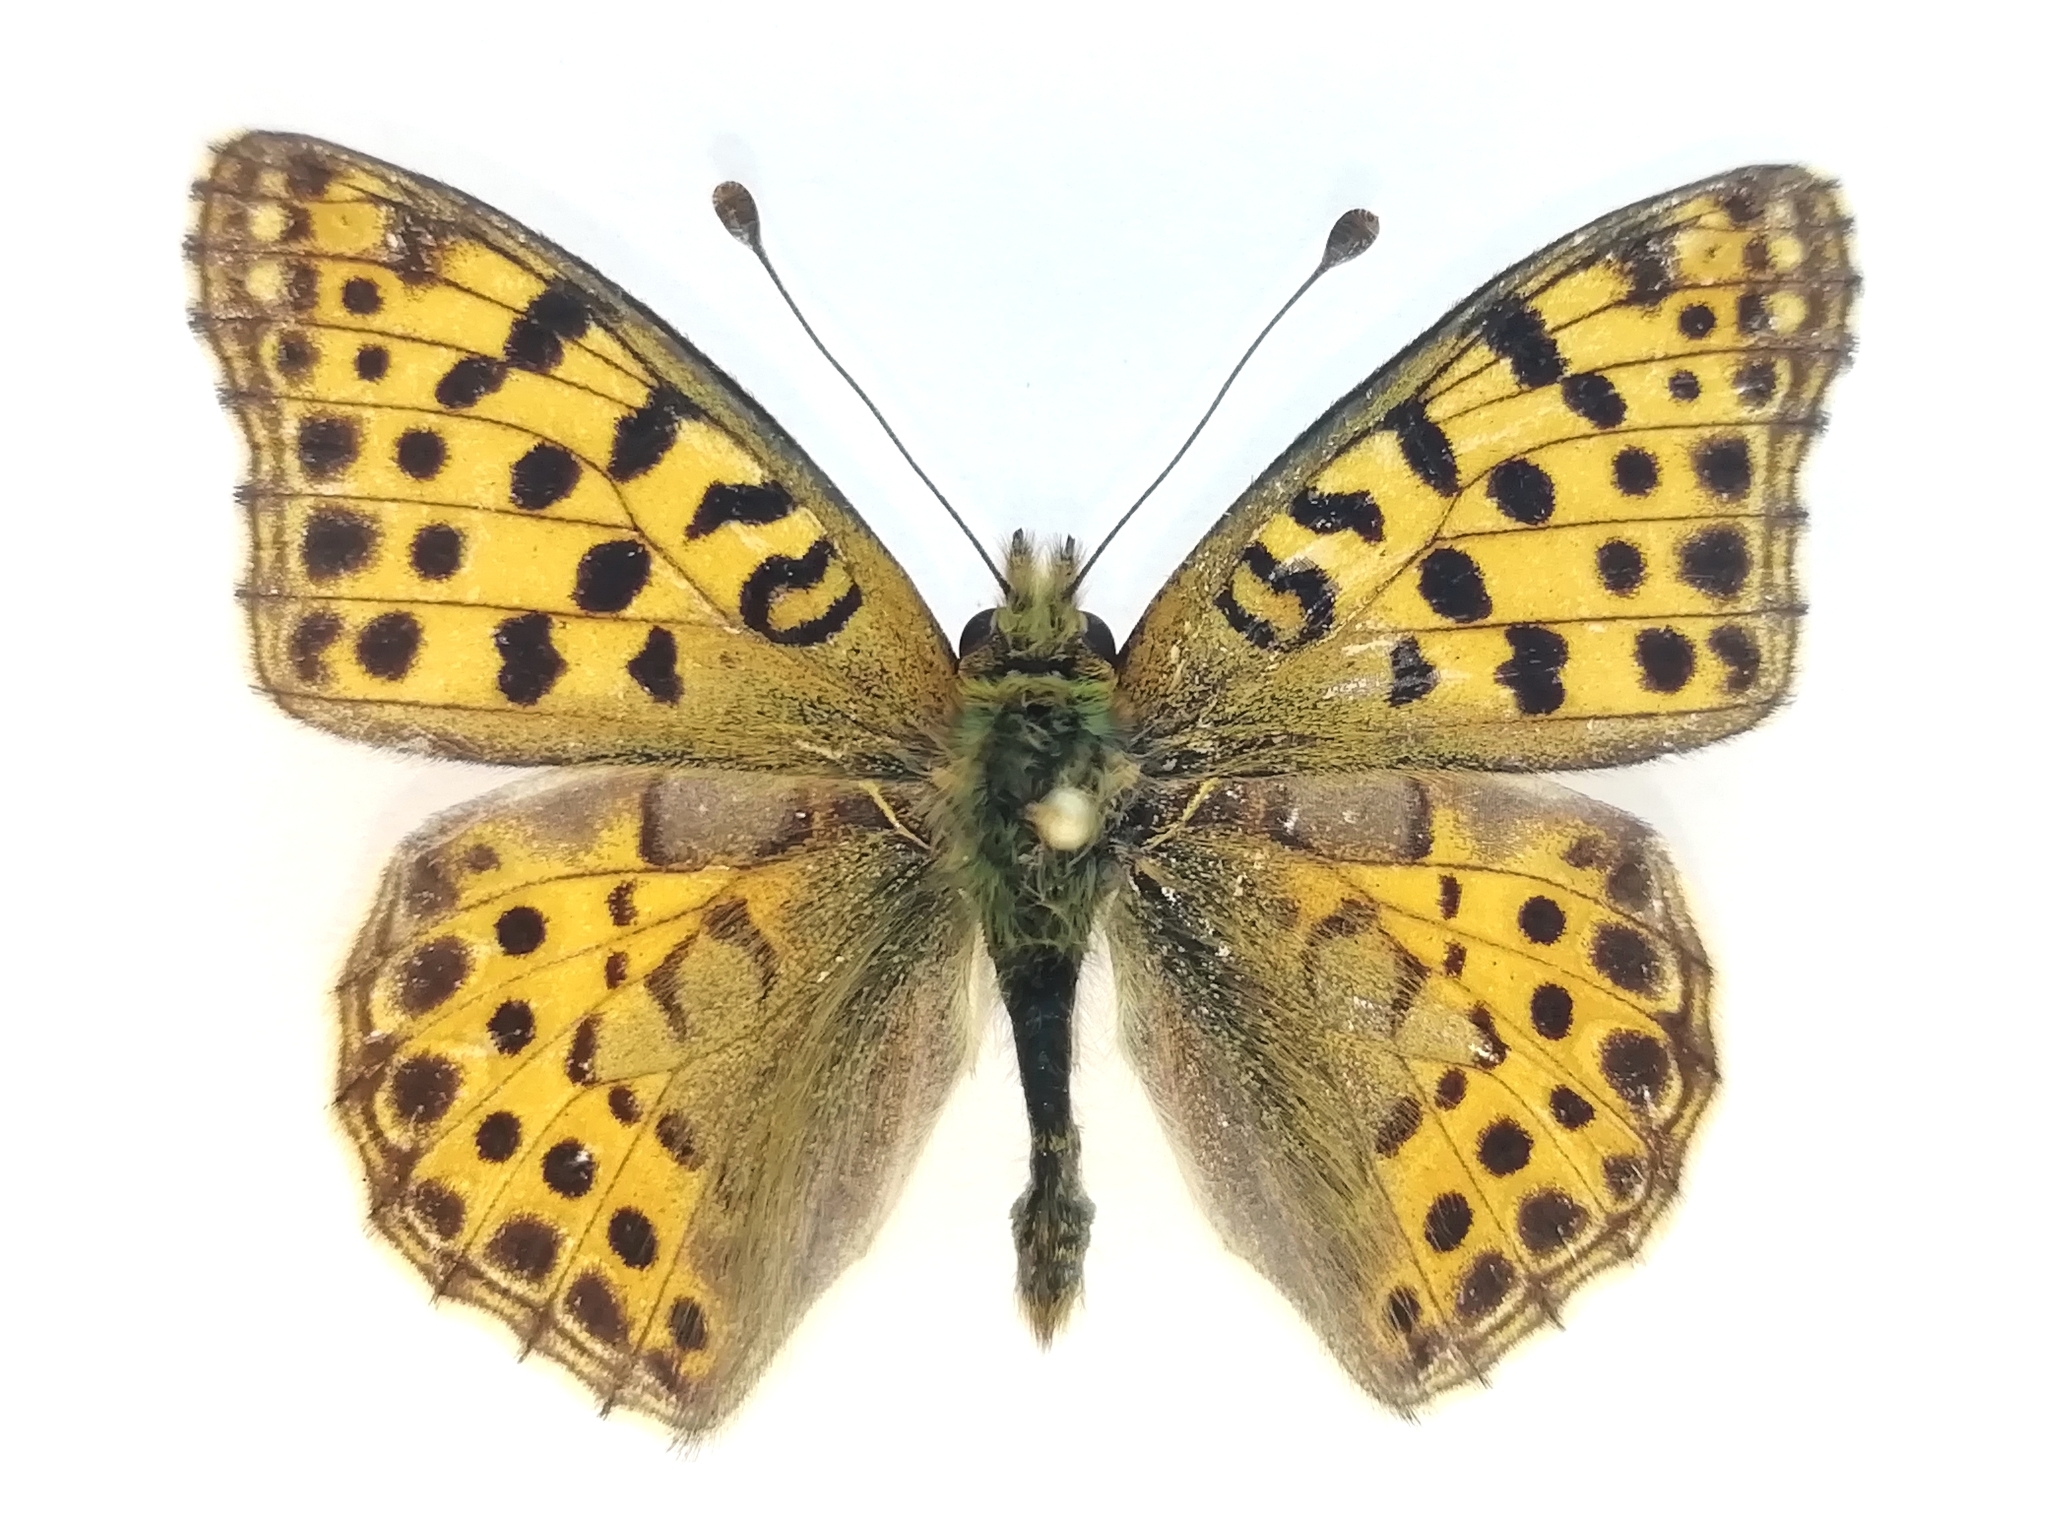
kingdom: Animalia
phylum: Arthropoda
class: Insecta
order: Lepidoptera
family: Nymphalidae
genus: Issoria
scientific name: Issoria lathonia
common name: Queen of spain fritillary
